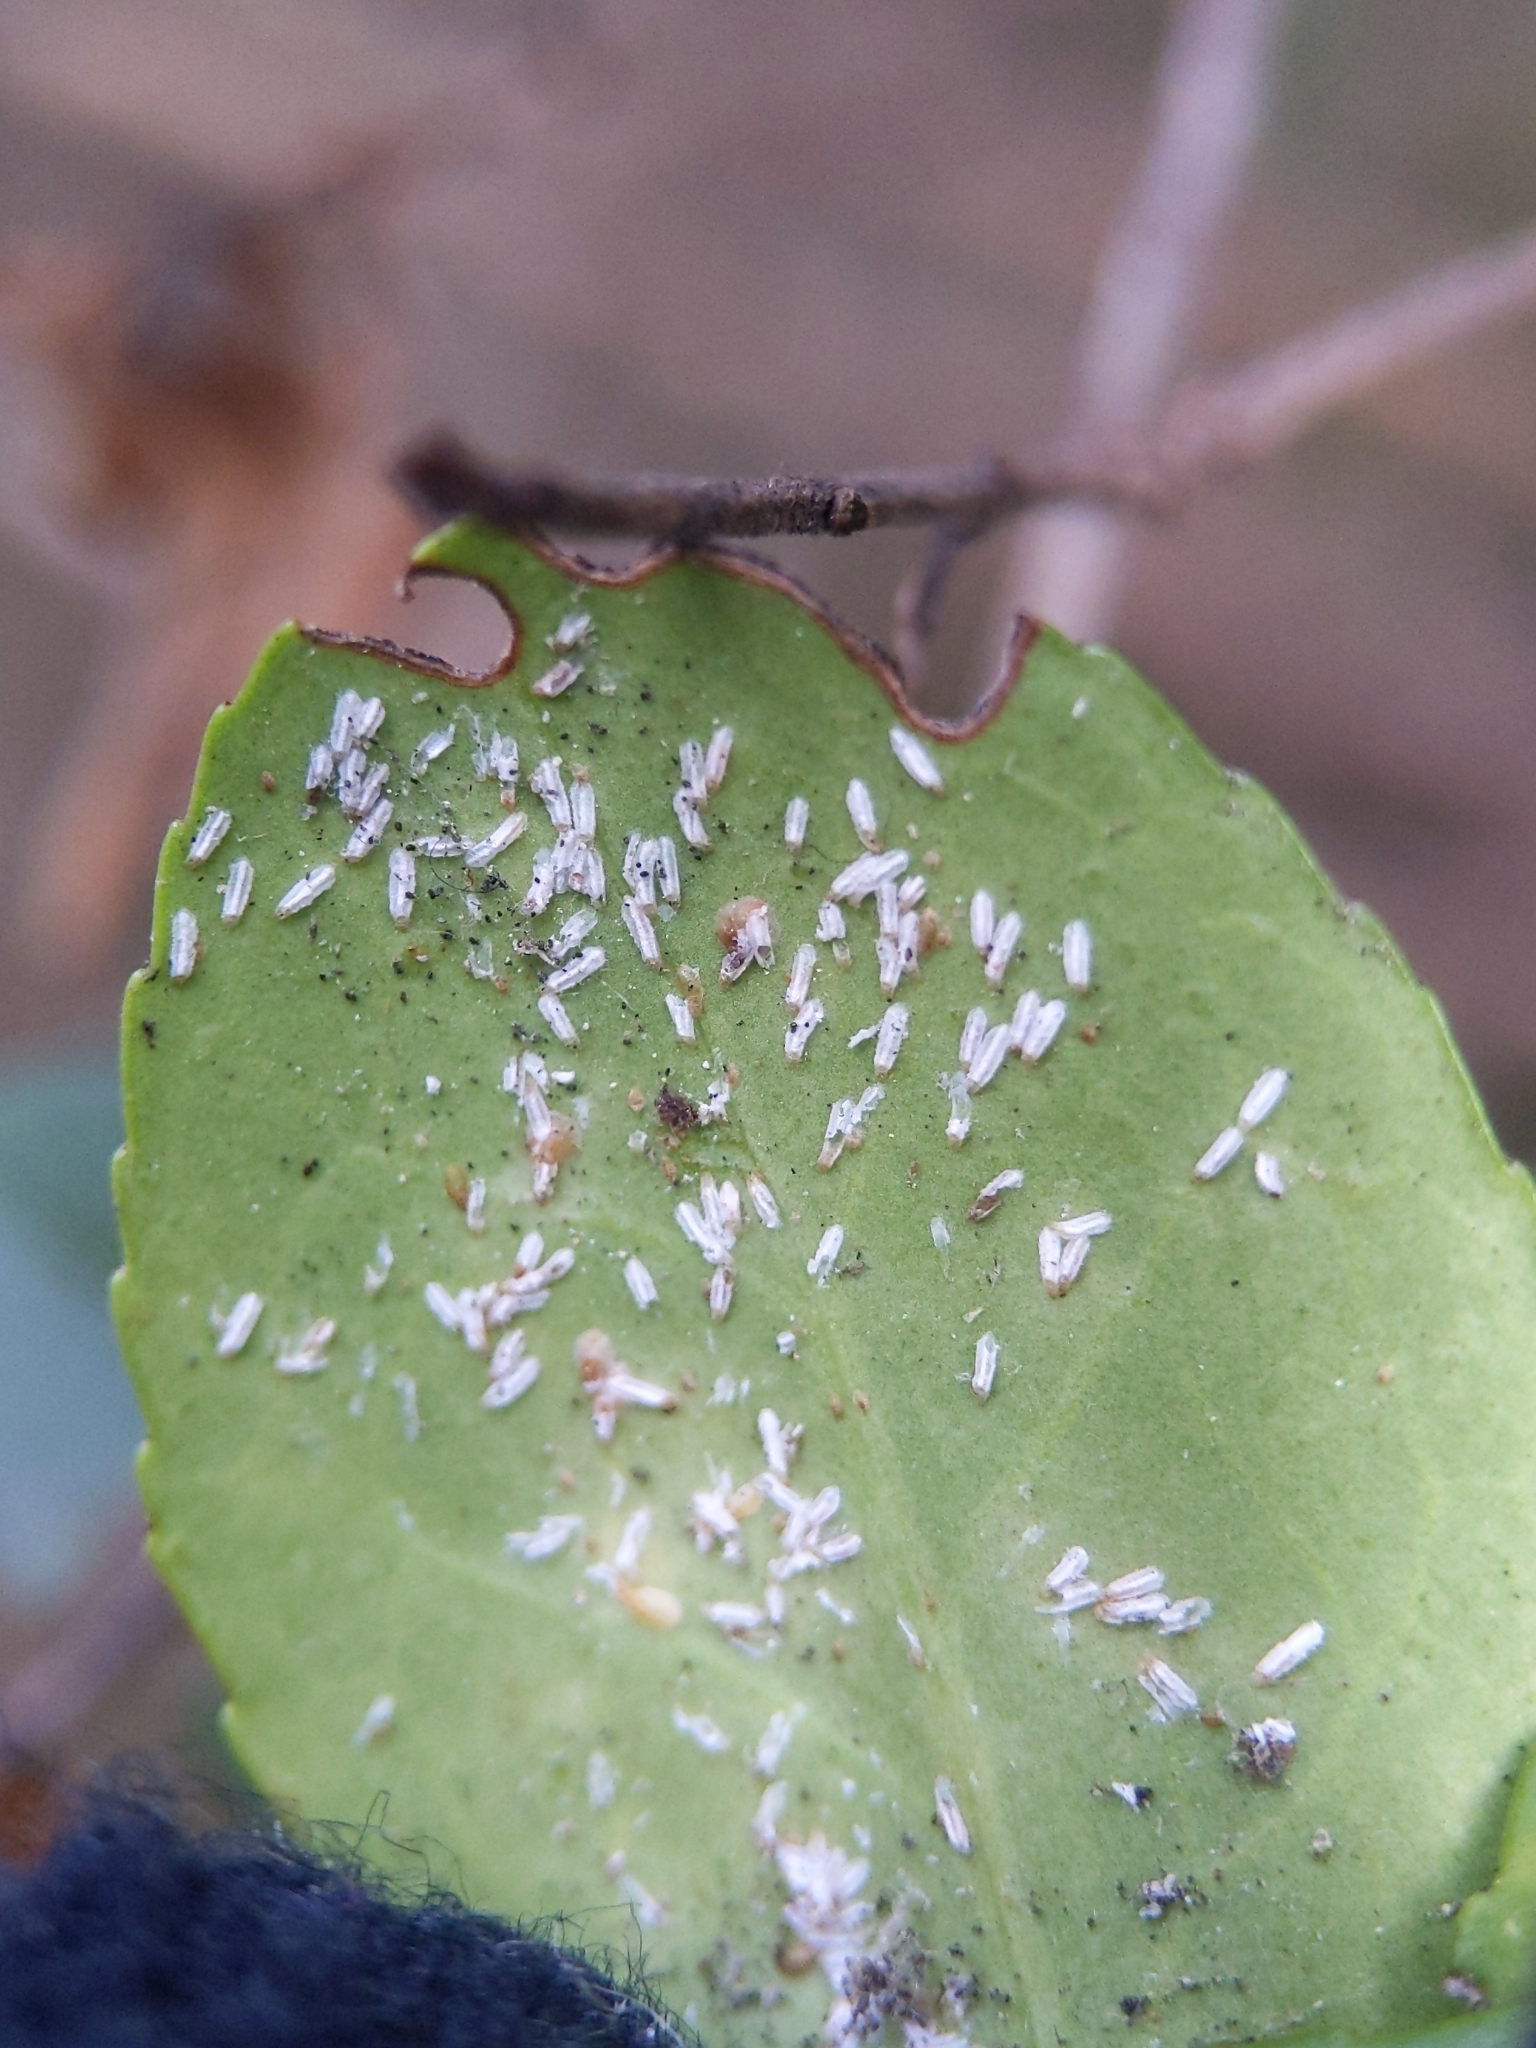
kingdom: Animalia
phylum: Arthropoda
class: Insecta
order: Hemiptera
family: Diaspididae
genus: Unaspis
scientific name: Unaspis euonymi
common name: Euonymus scale
